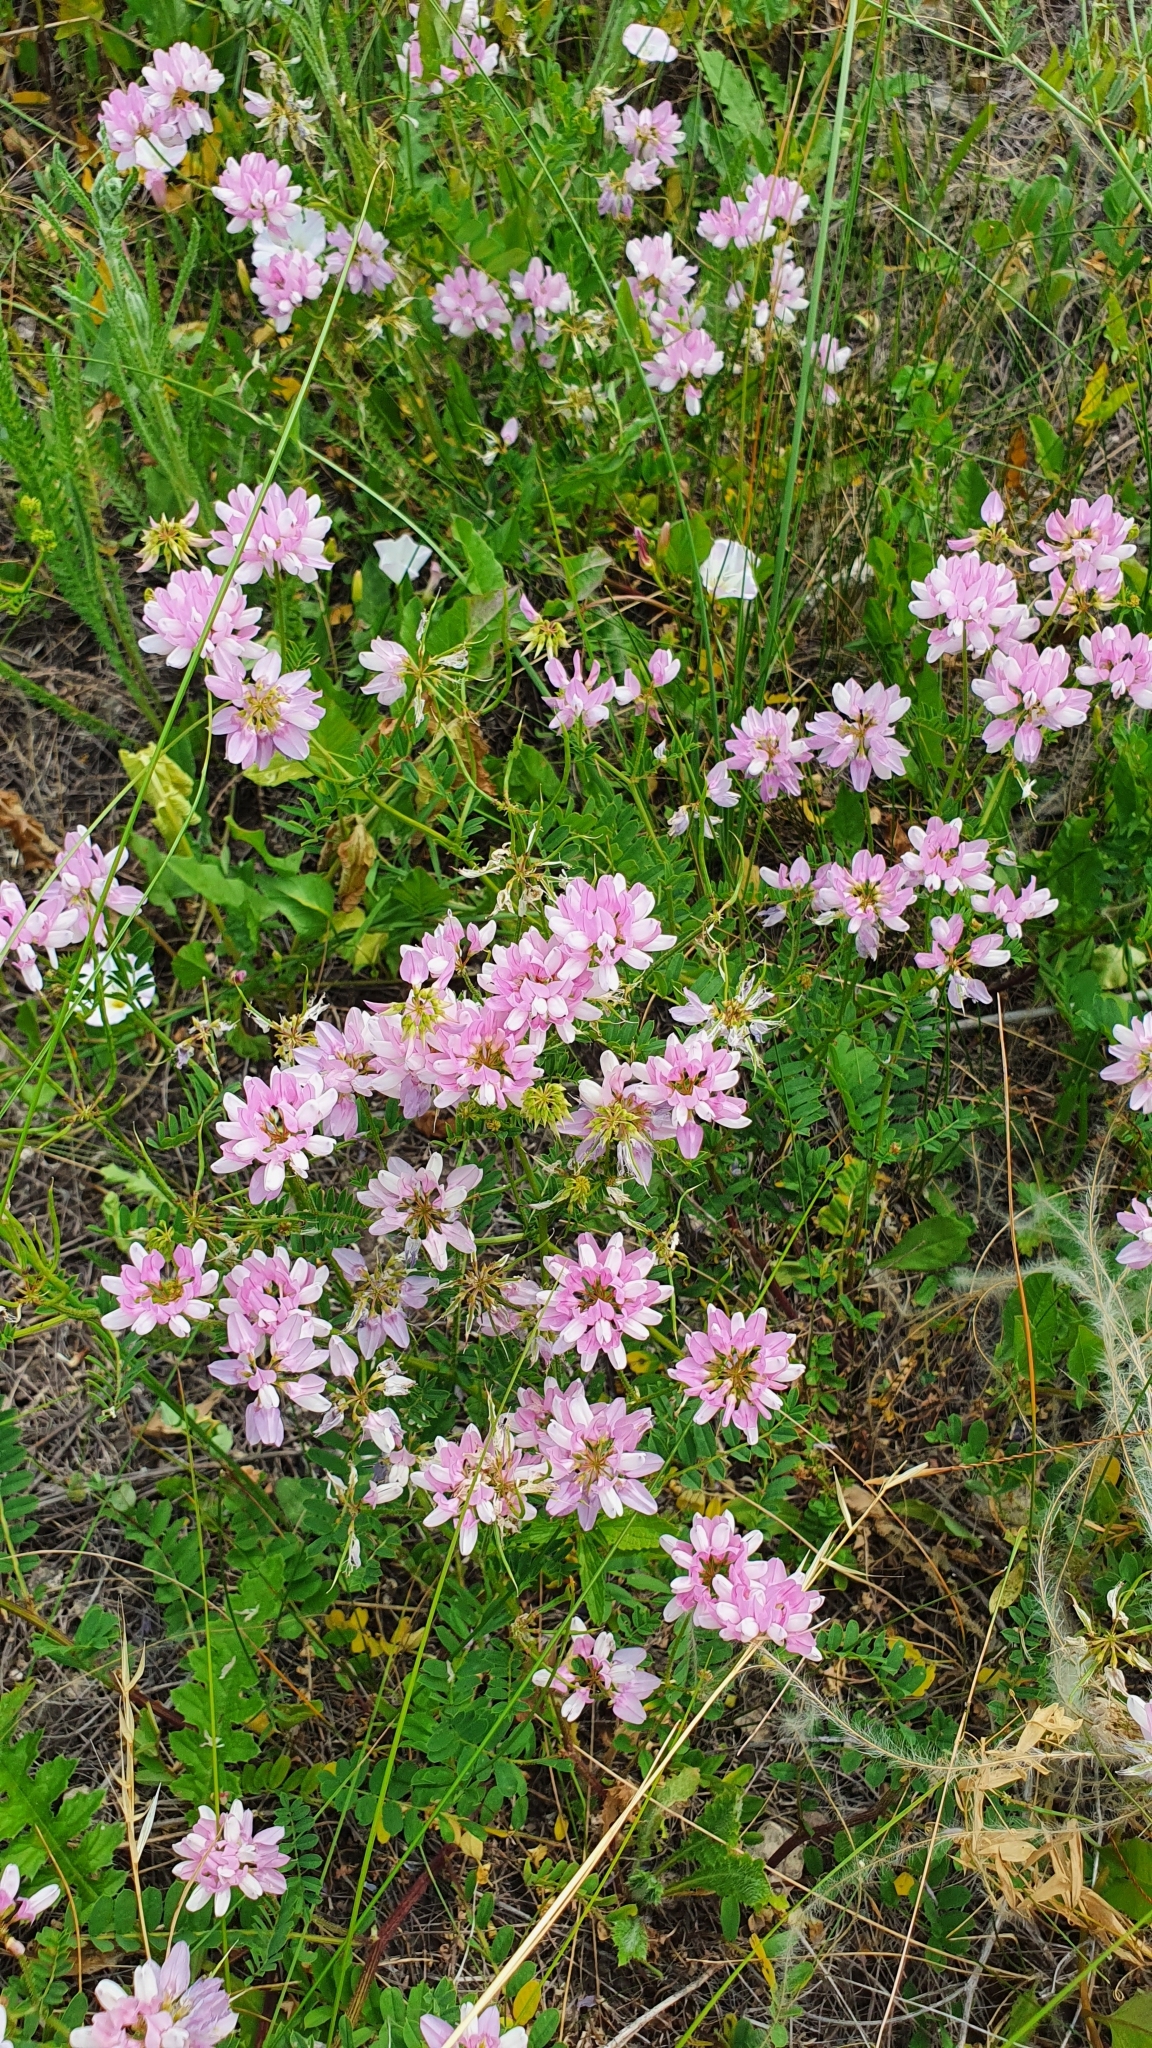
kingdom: Plantae
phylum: Tracheophyta
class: Magnoliopsida
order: Fabales
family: Fabaceae
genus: Coronilla
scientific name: Coronilla varia
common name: Crownvetch
